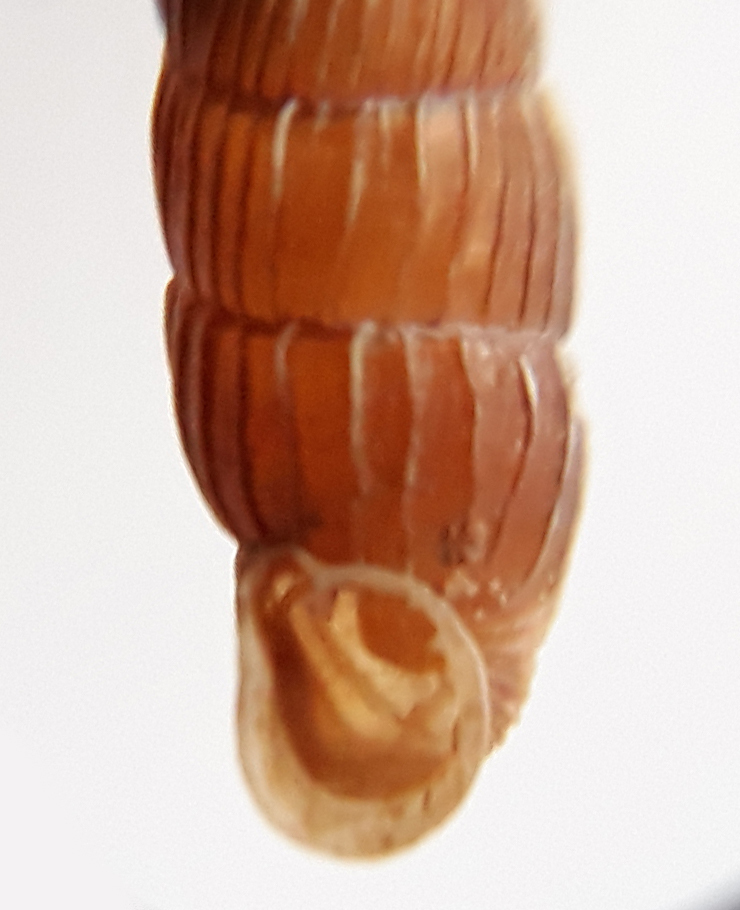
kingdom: Animalia
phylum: Mollusca
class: Gastropoda
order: Stylommatophora
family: Clausiliidae
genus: Macrogastra
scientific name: Macrogastra borealis
